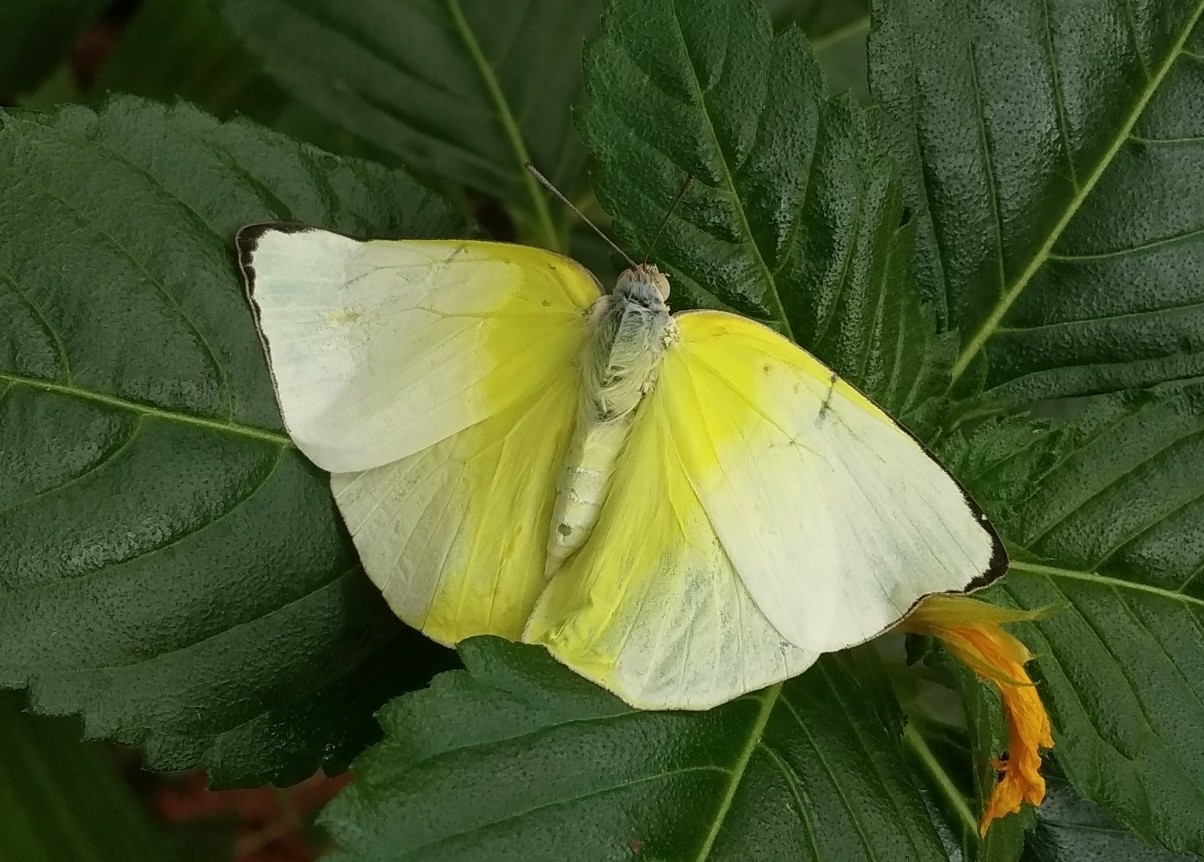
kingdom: Animalia
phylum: Arthropoda
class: Insecta
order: Lepidoptera
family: Pieridae
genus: Catopsilia
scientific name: Catopsilia pomona
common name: Common emigrant
